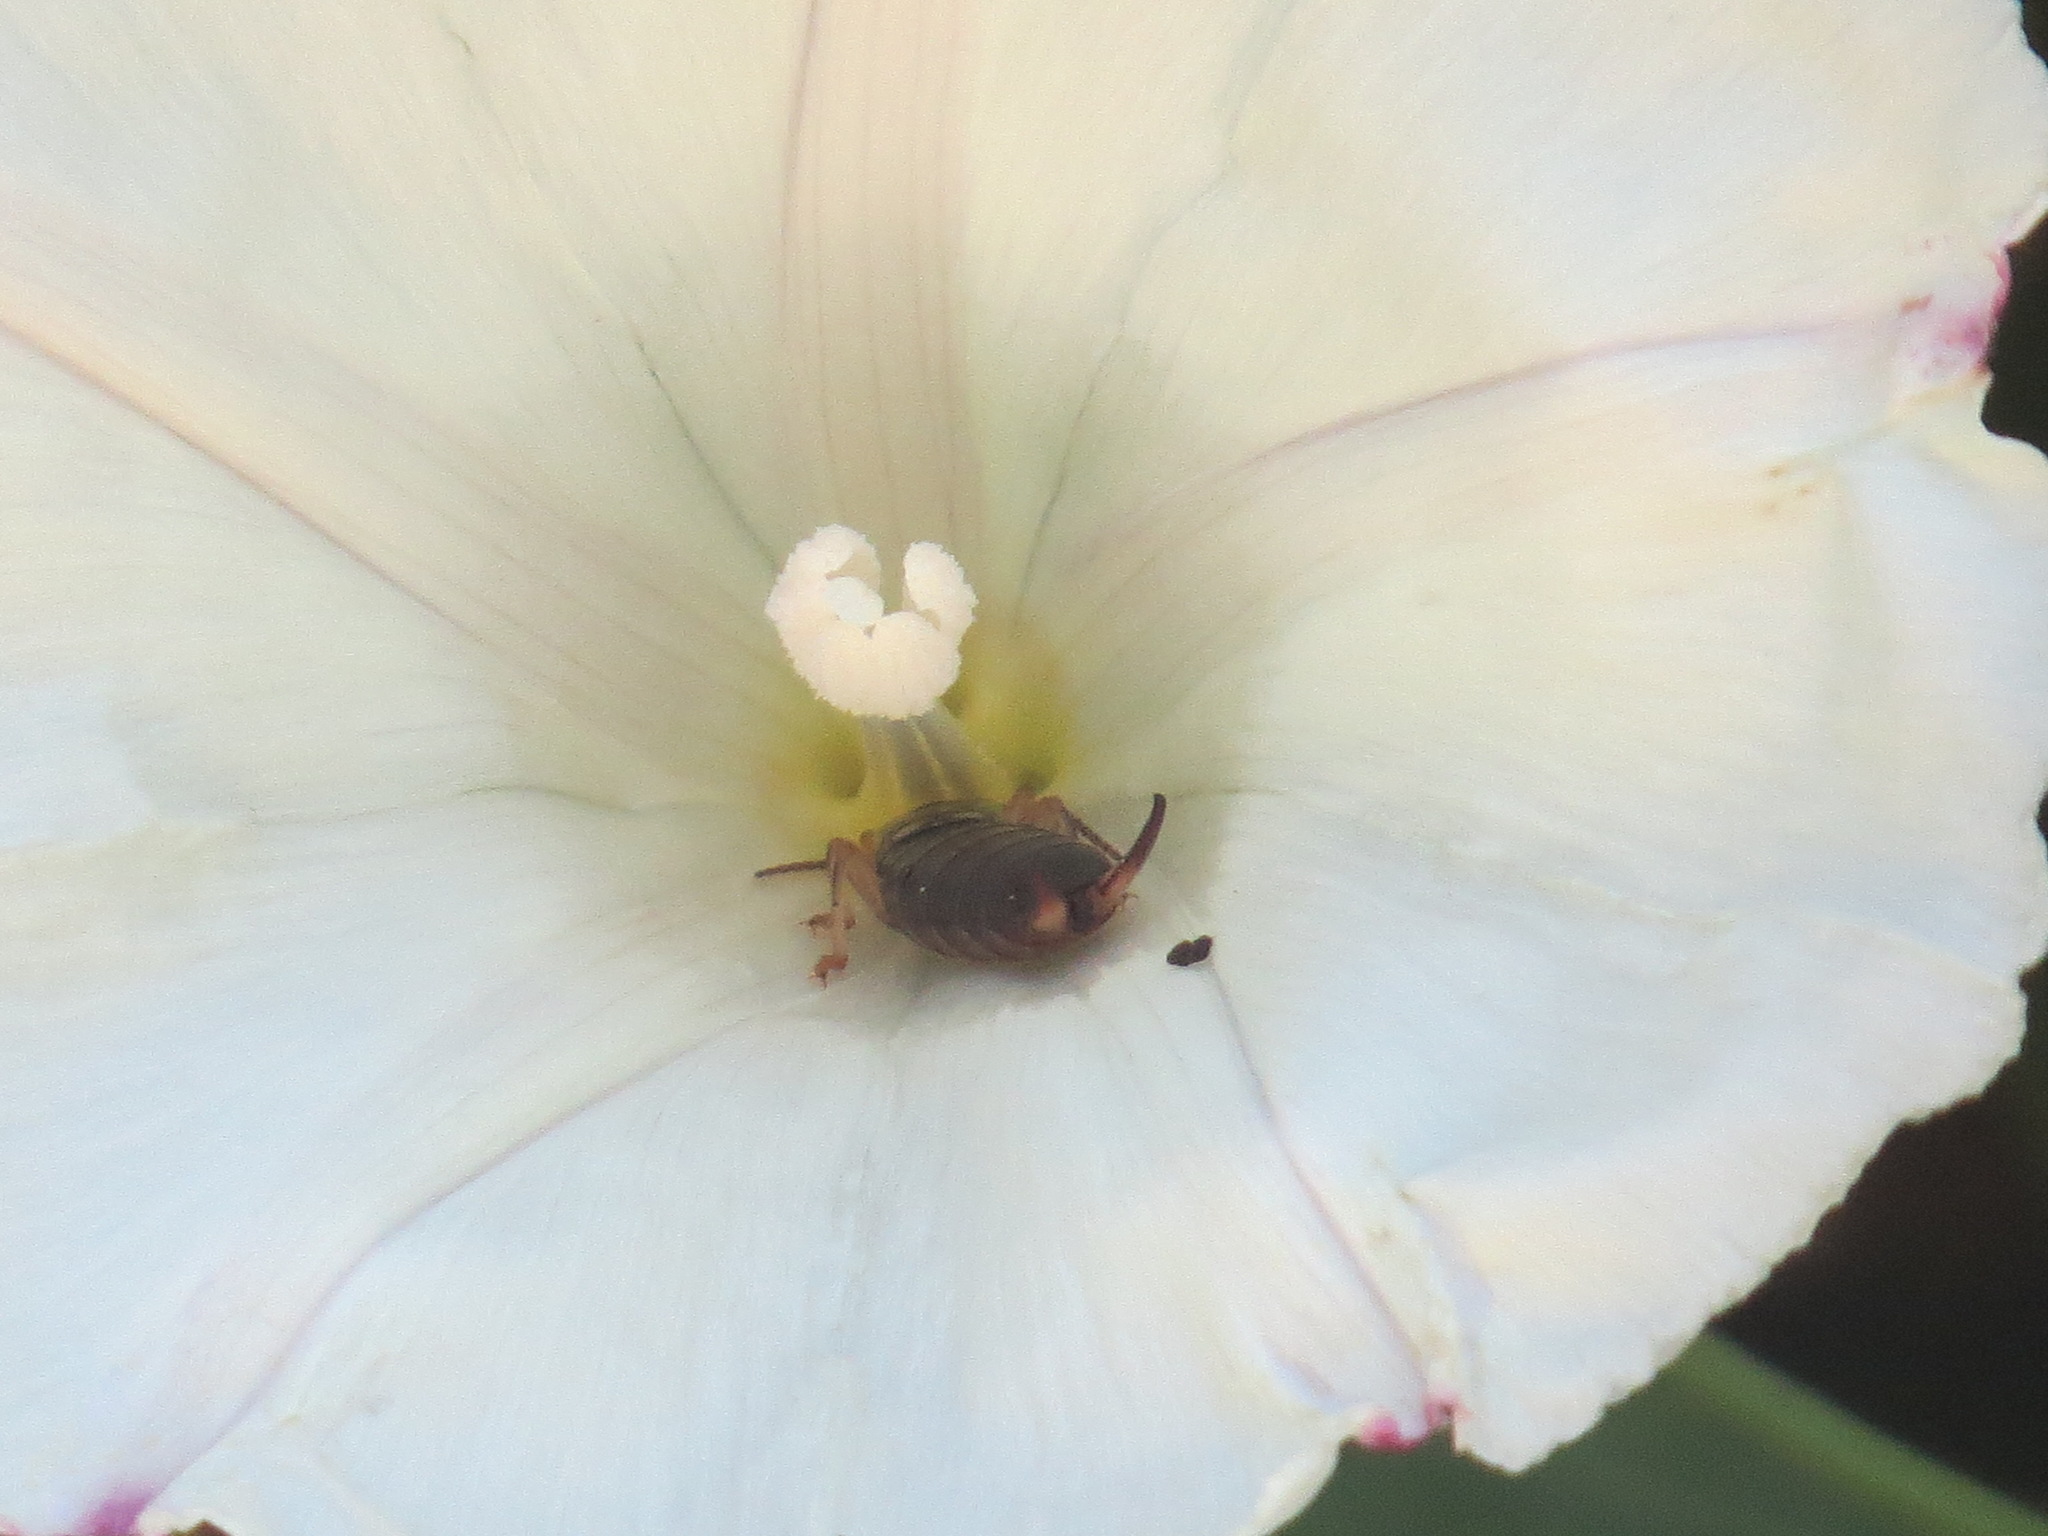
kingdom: Animalia
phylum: Arthropoda
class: Insecta
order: Dermaptera
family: Forficulidae
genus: Forficula
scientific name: Forficula
